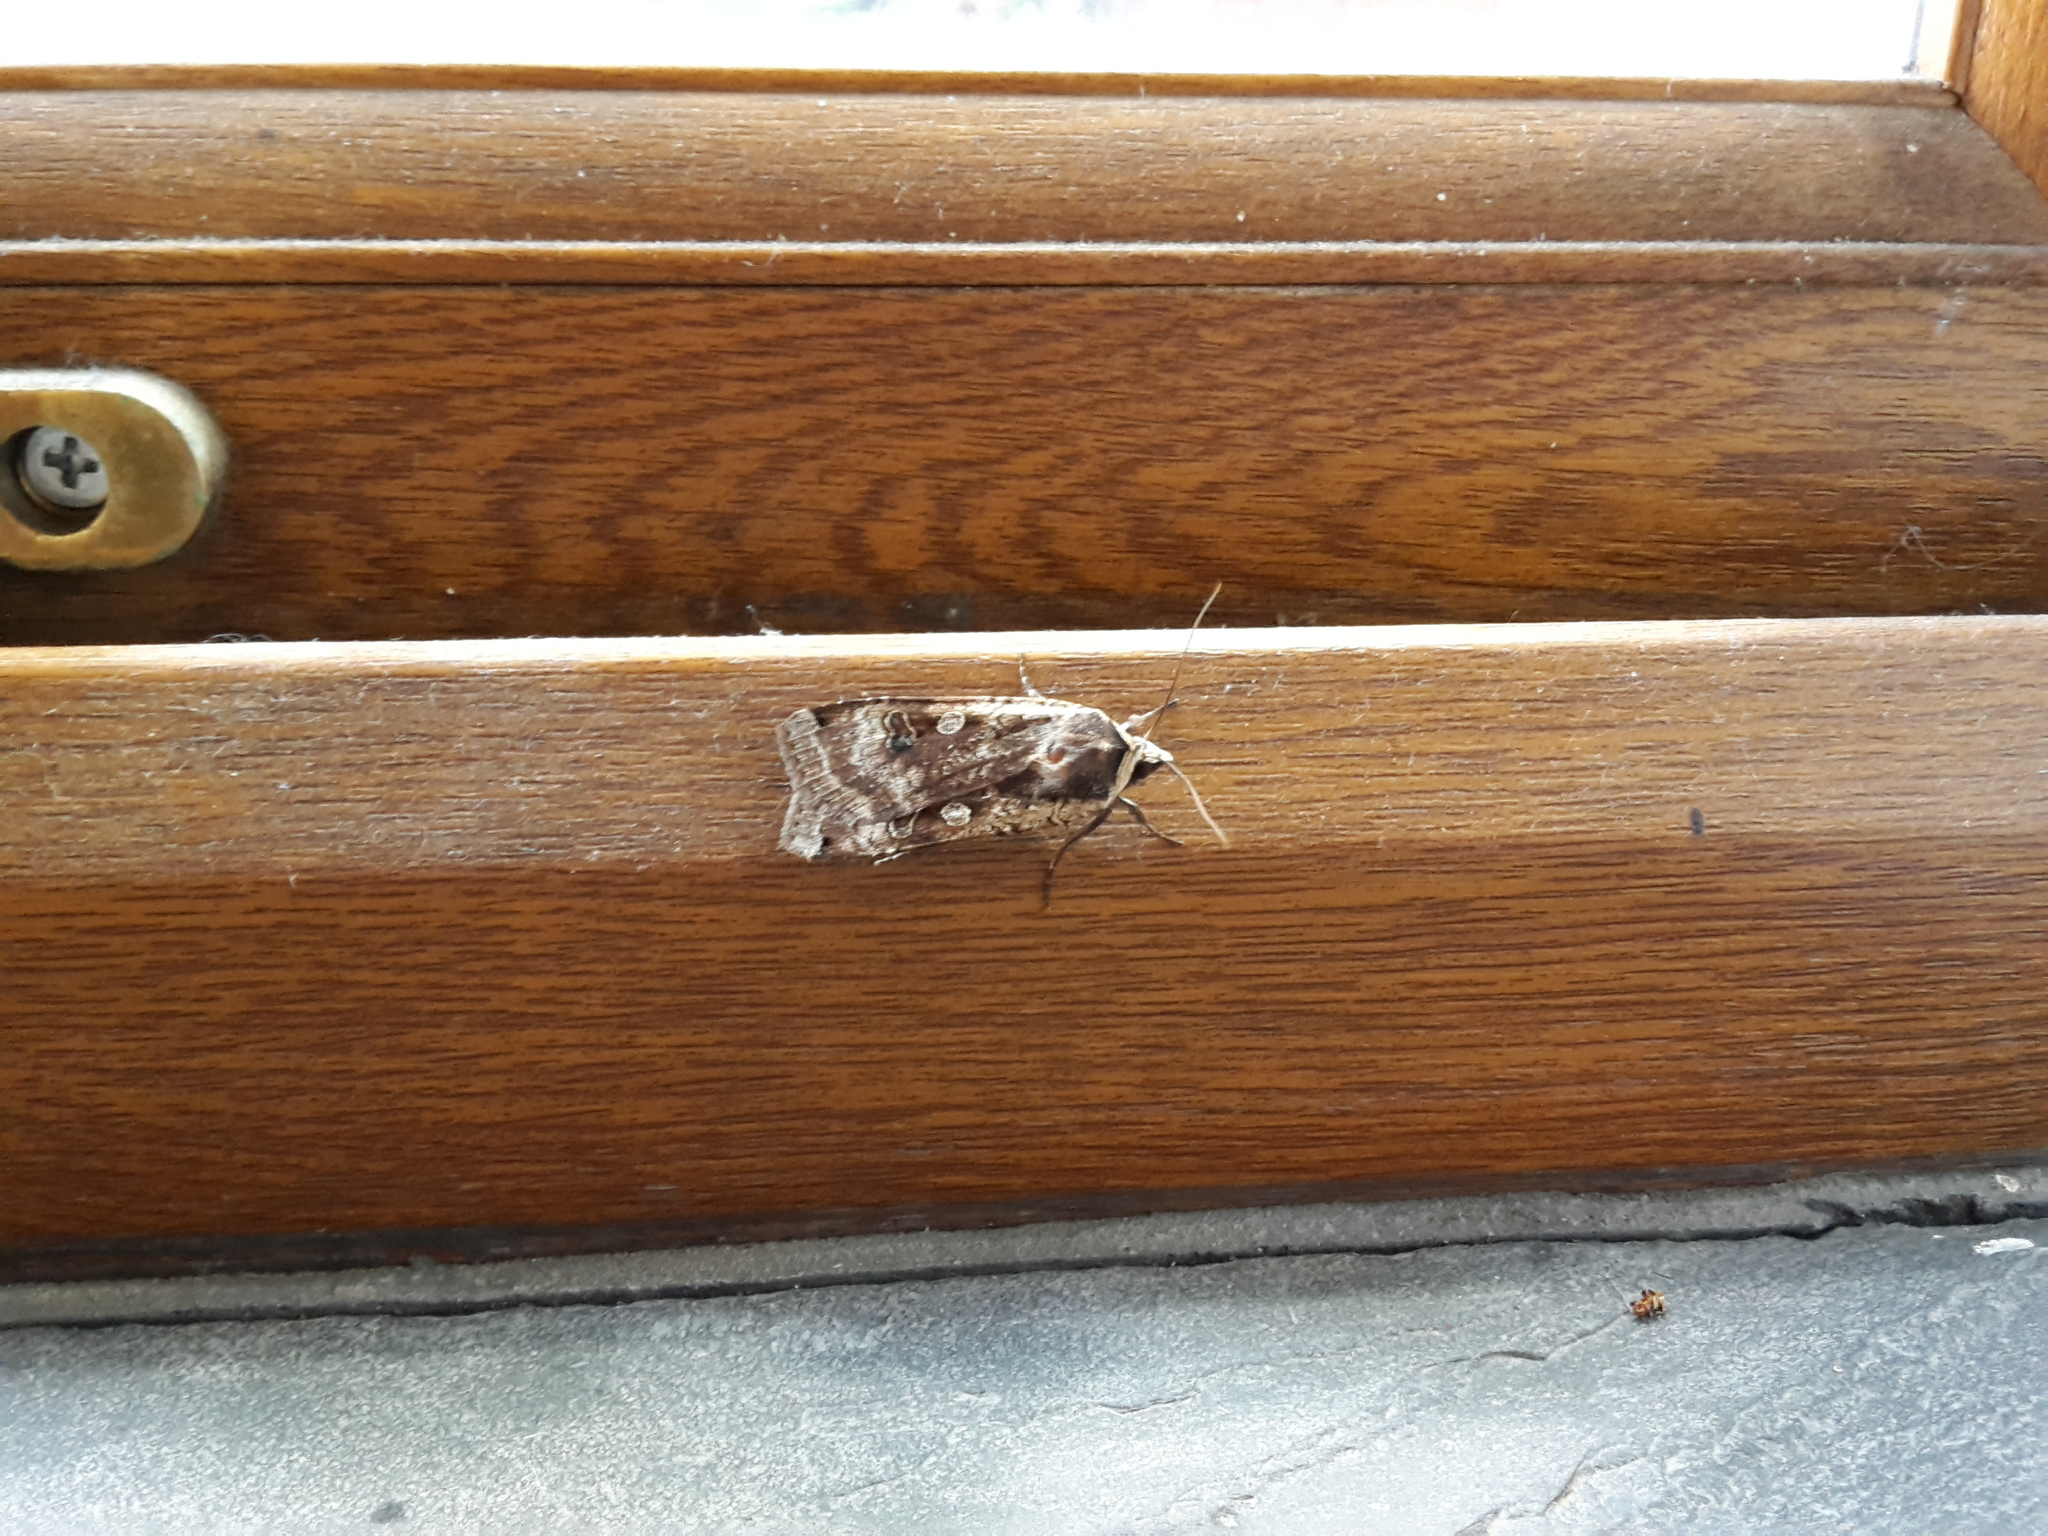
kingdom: Animalia
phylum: Arthropoda
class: Insecta
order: Lepidoptera
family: Noctuidae
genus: Noctua
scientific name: Noctua pronuba
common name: Large yellow underwing
